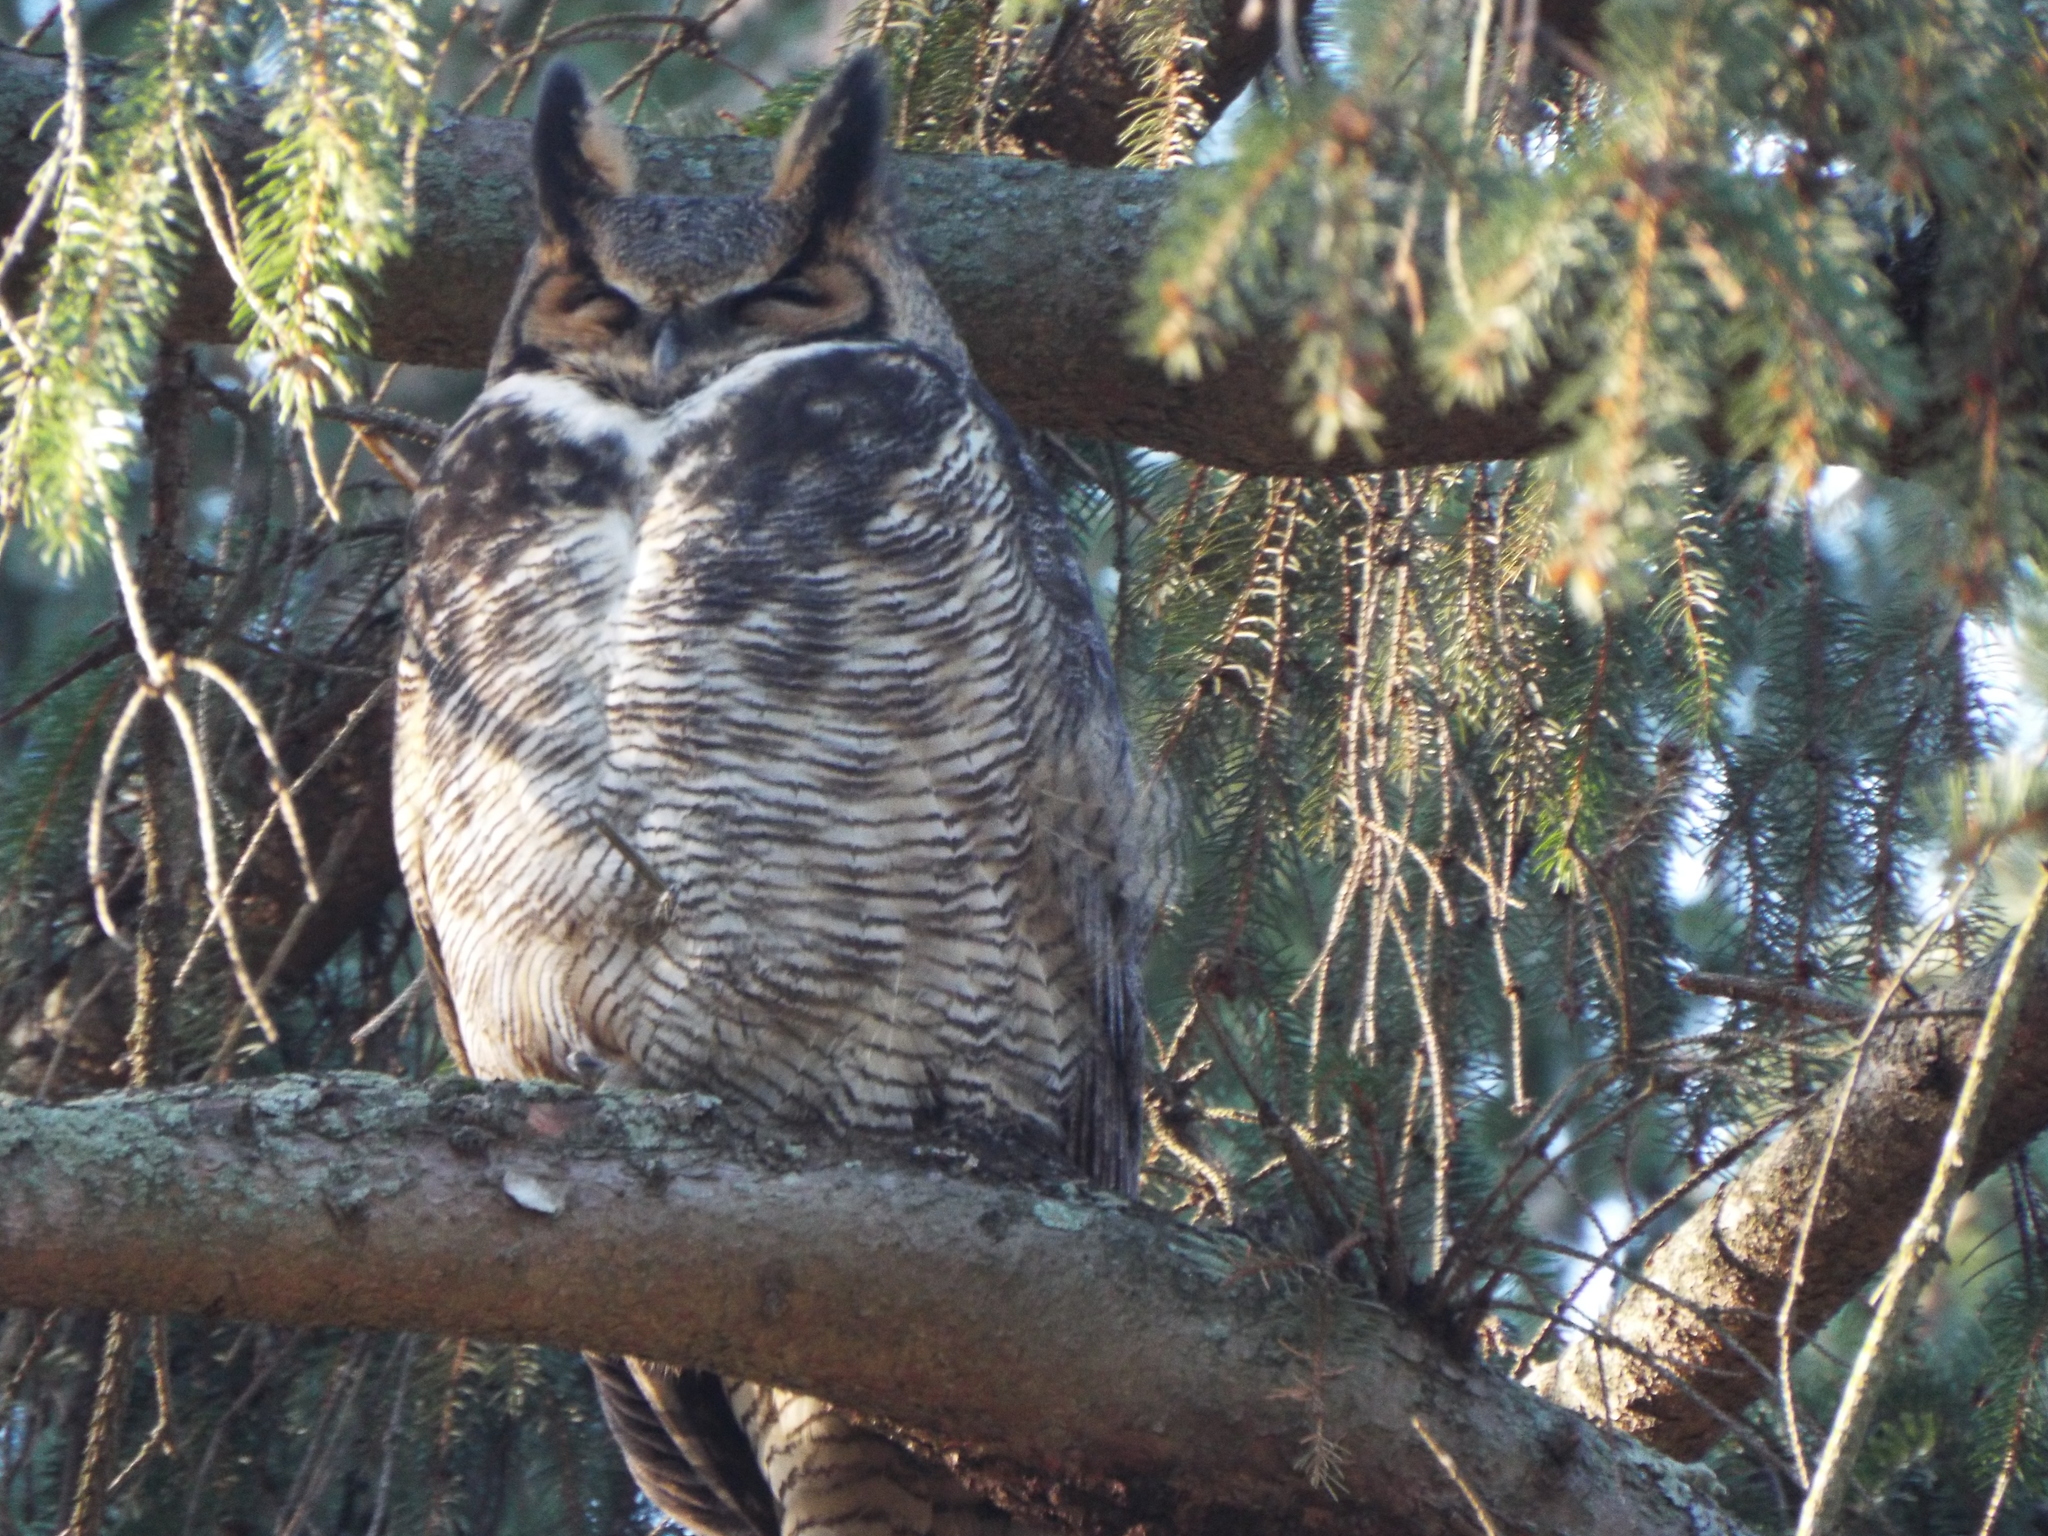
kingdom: Animalia
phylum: Chordata
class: Aves
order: Strigiformes
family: Strigidae
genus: Bubo
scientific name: Bubo virginianus
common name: Great horned owl
